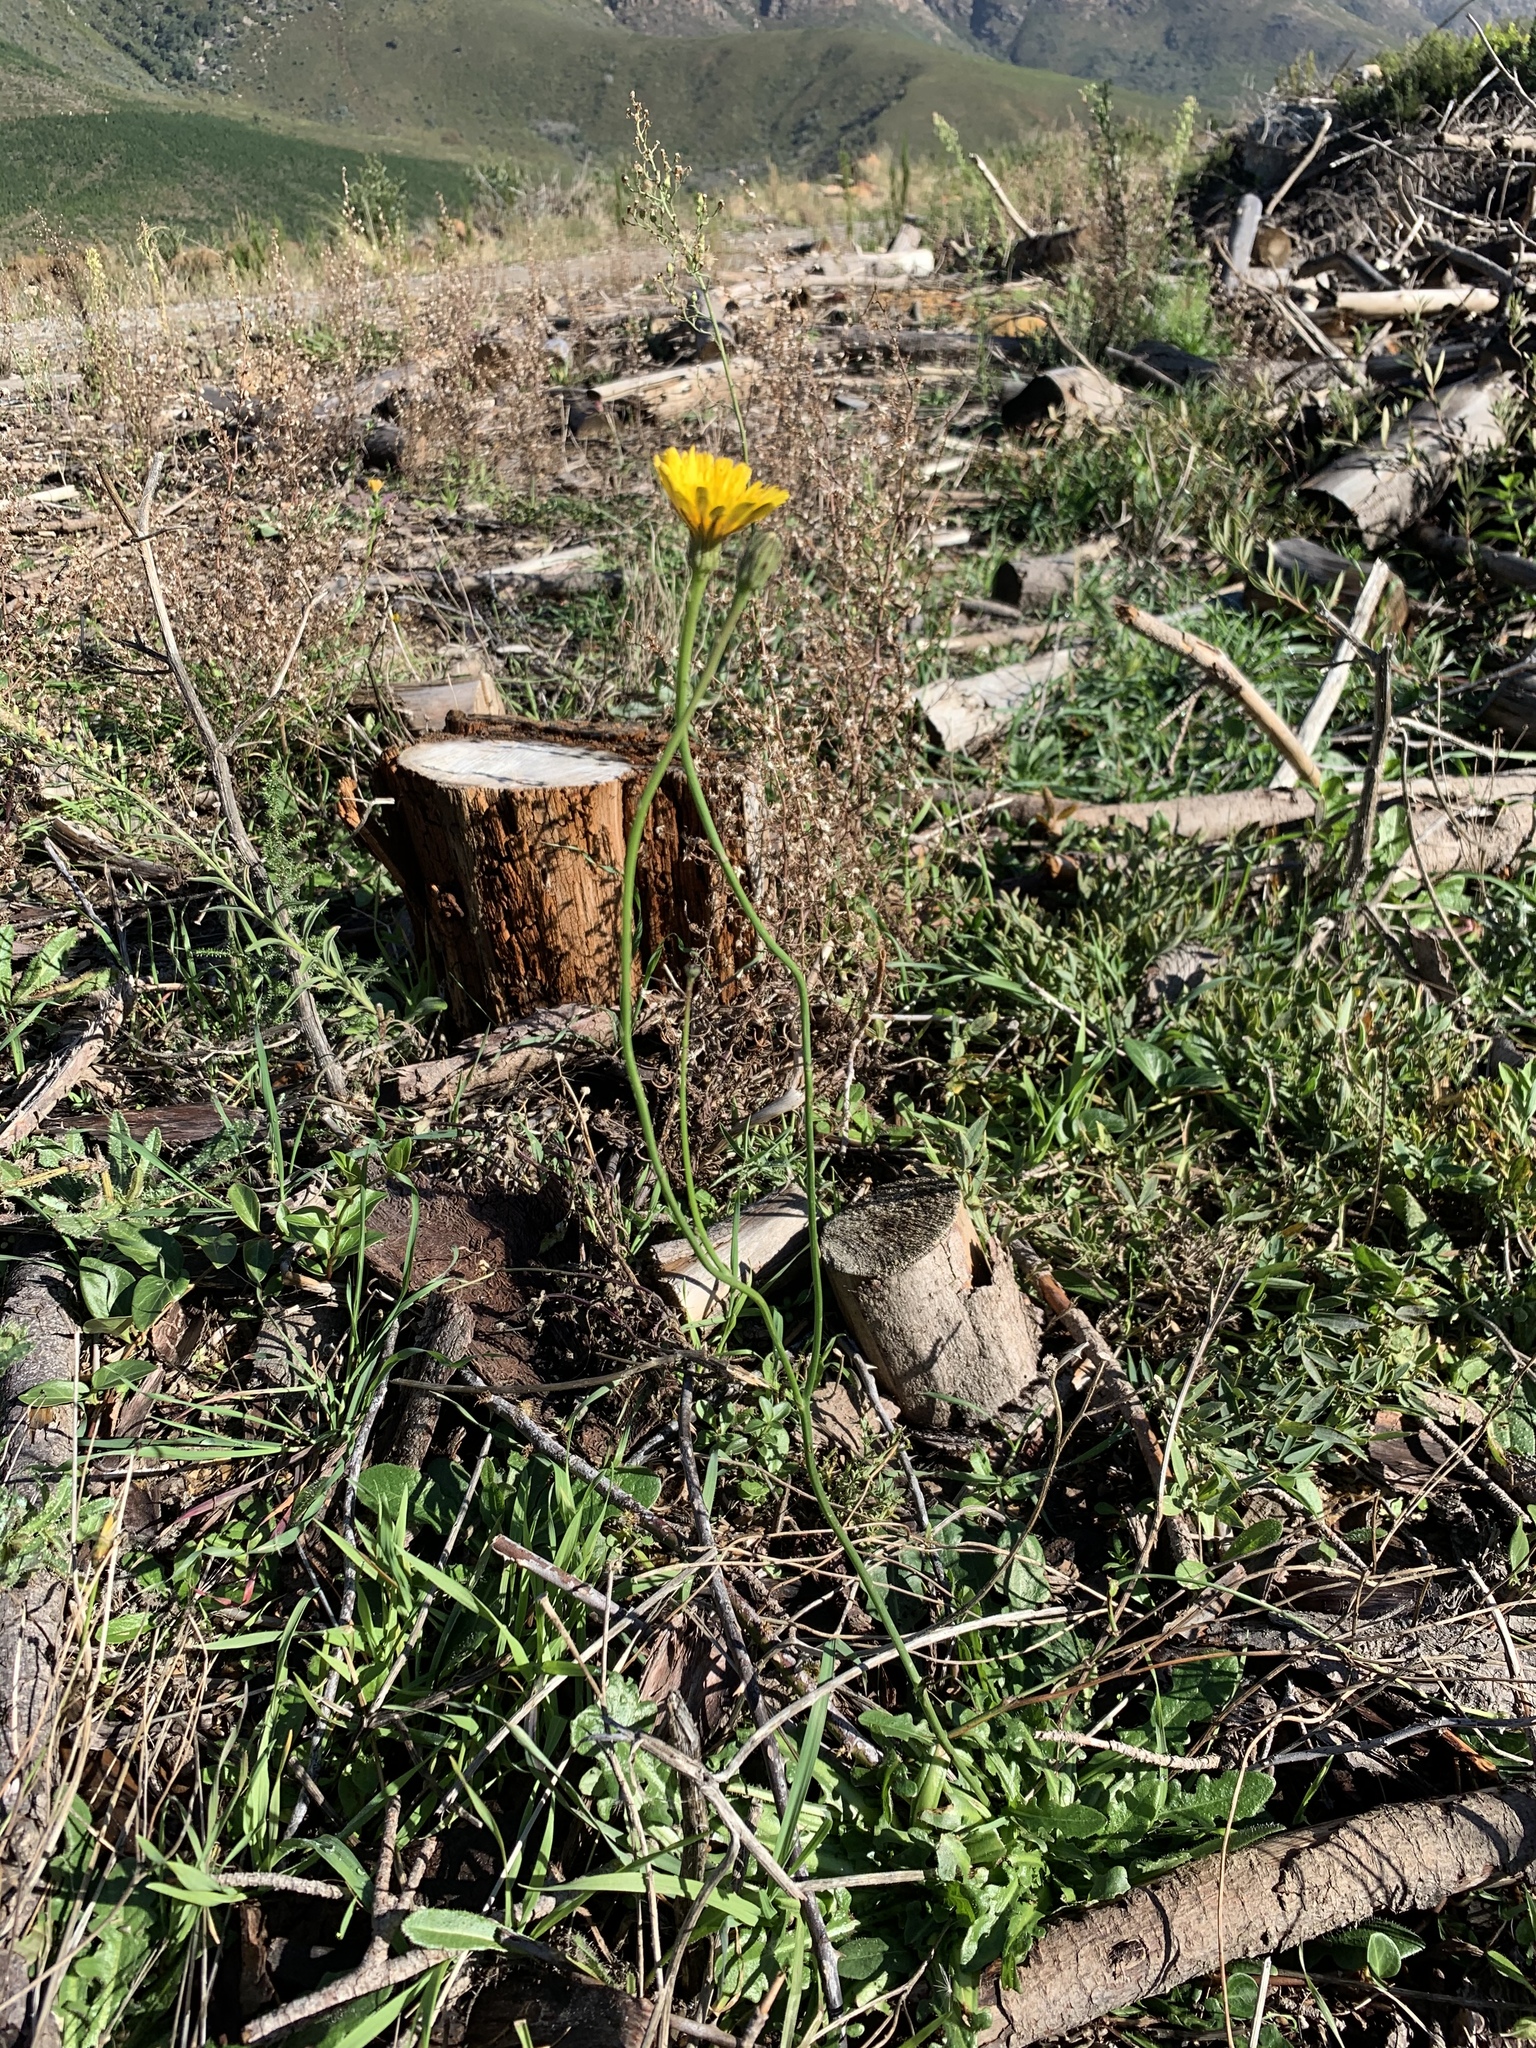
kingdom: Plantae
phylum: Tracheophyta
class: Magnoliopsida
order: Asterales
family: Asteraceae
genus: Hypochaeris
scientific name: Hypochaeris radicata
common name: Flatweed
